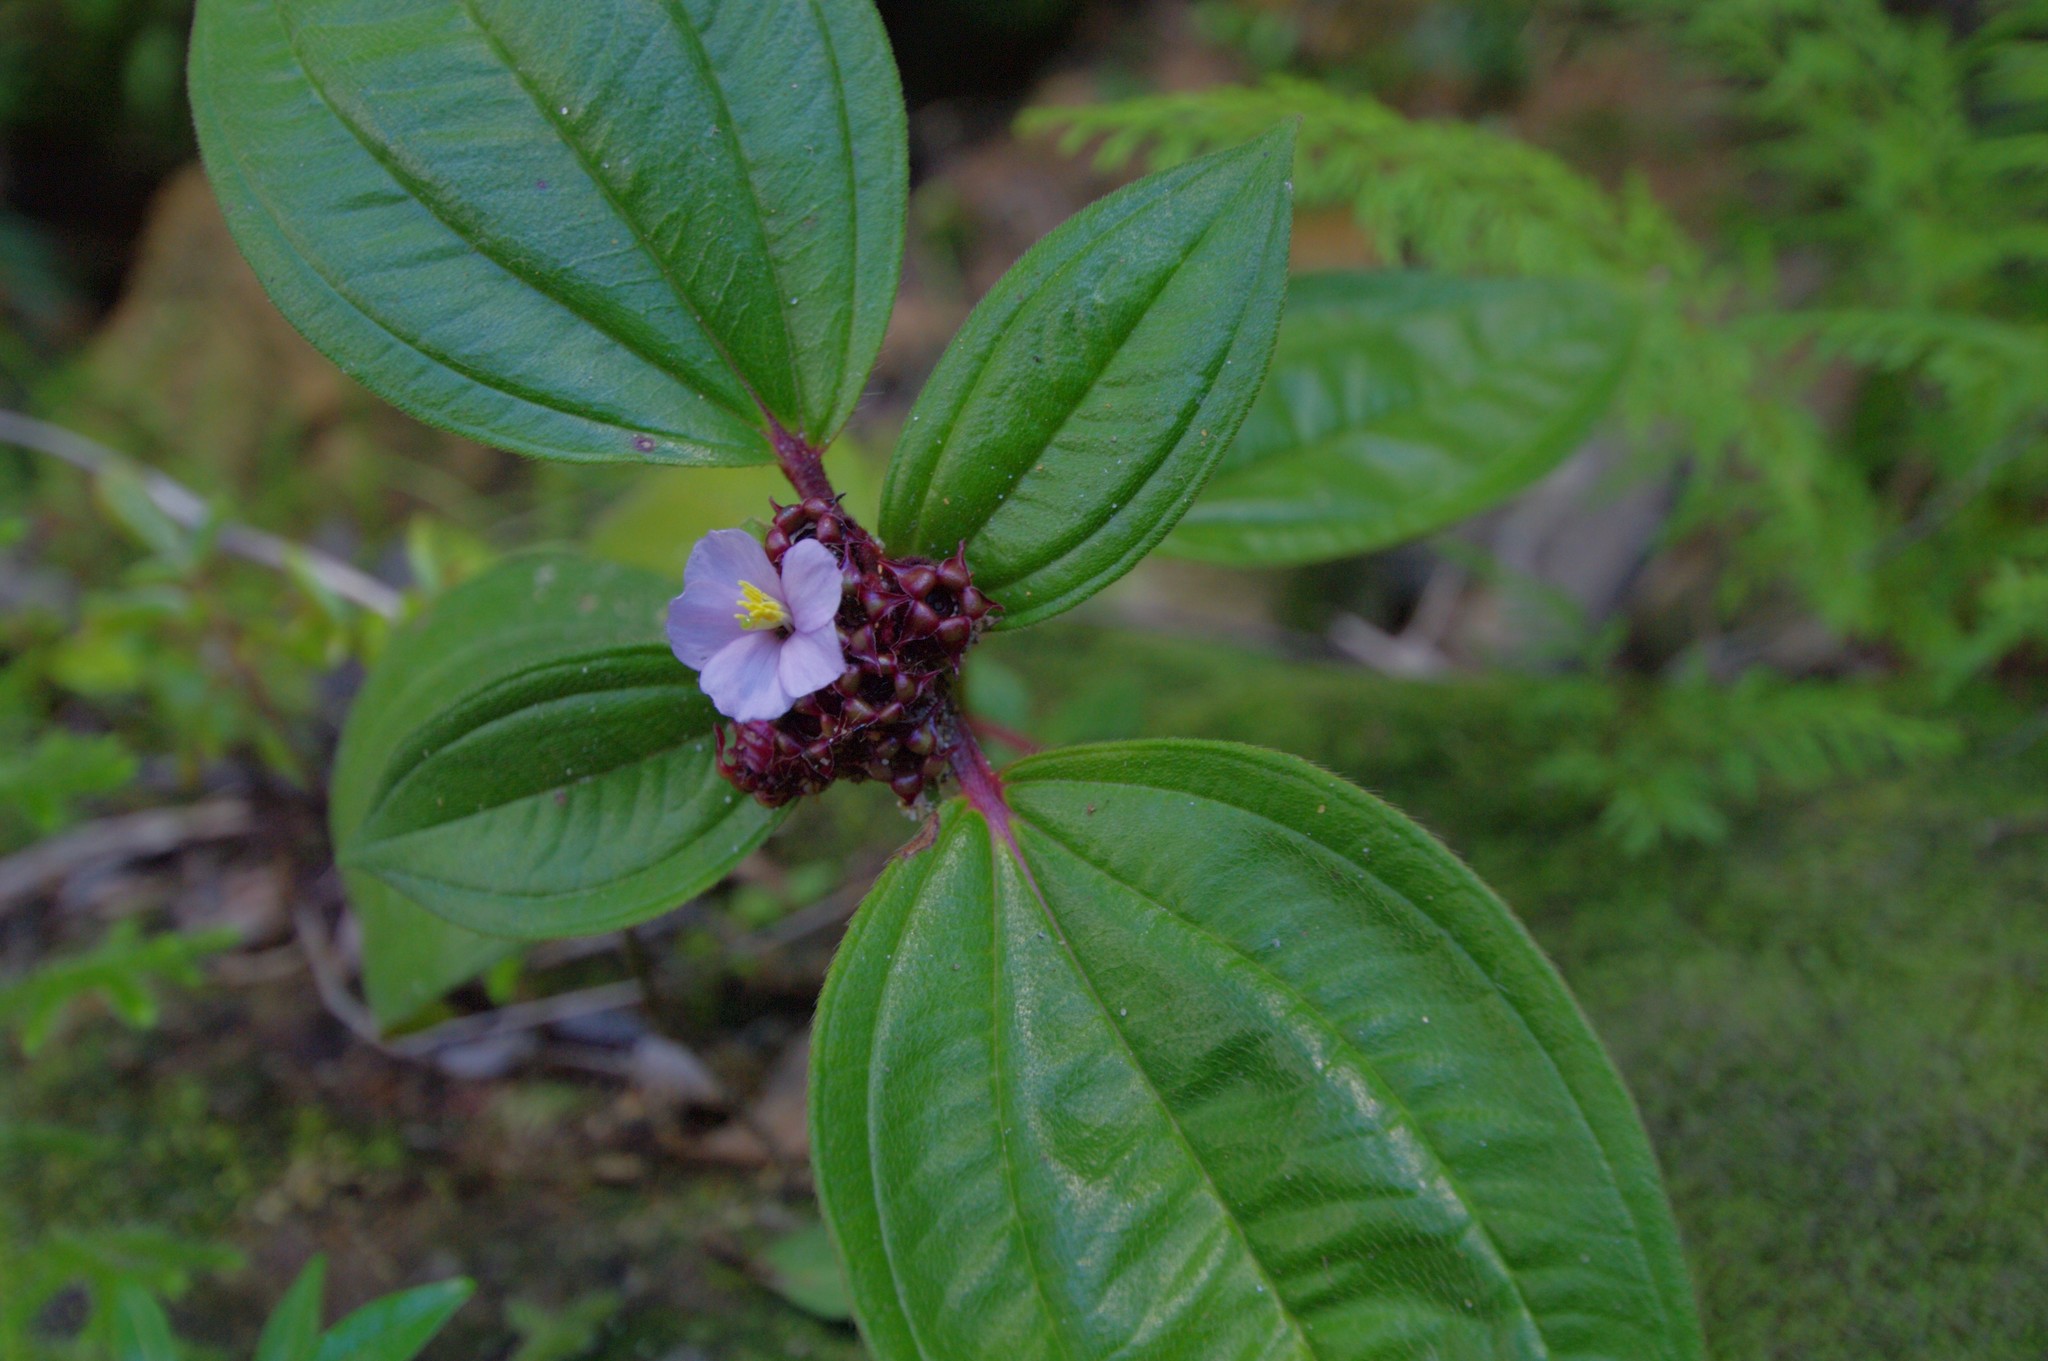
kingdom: Plantae
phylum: Tracheophyta
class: Magnoliopsida
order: Myrtales
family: Melastomataceae
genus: Tristemma
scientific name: Tristemma mauritianum
